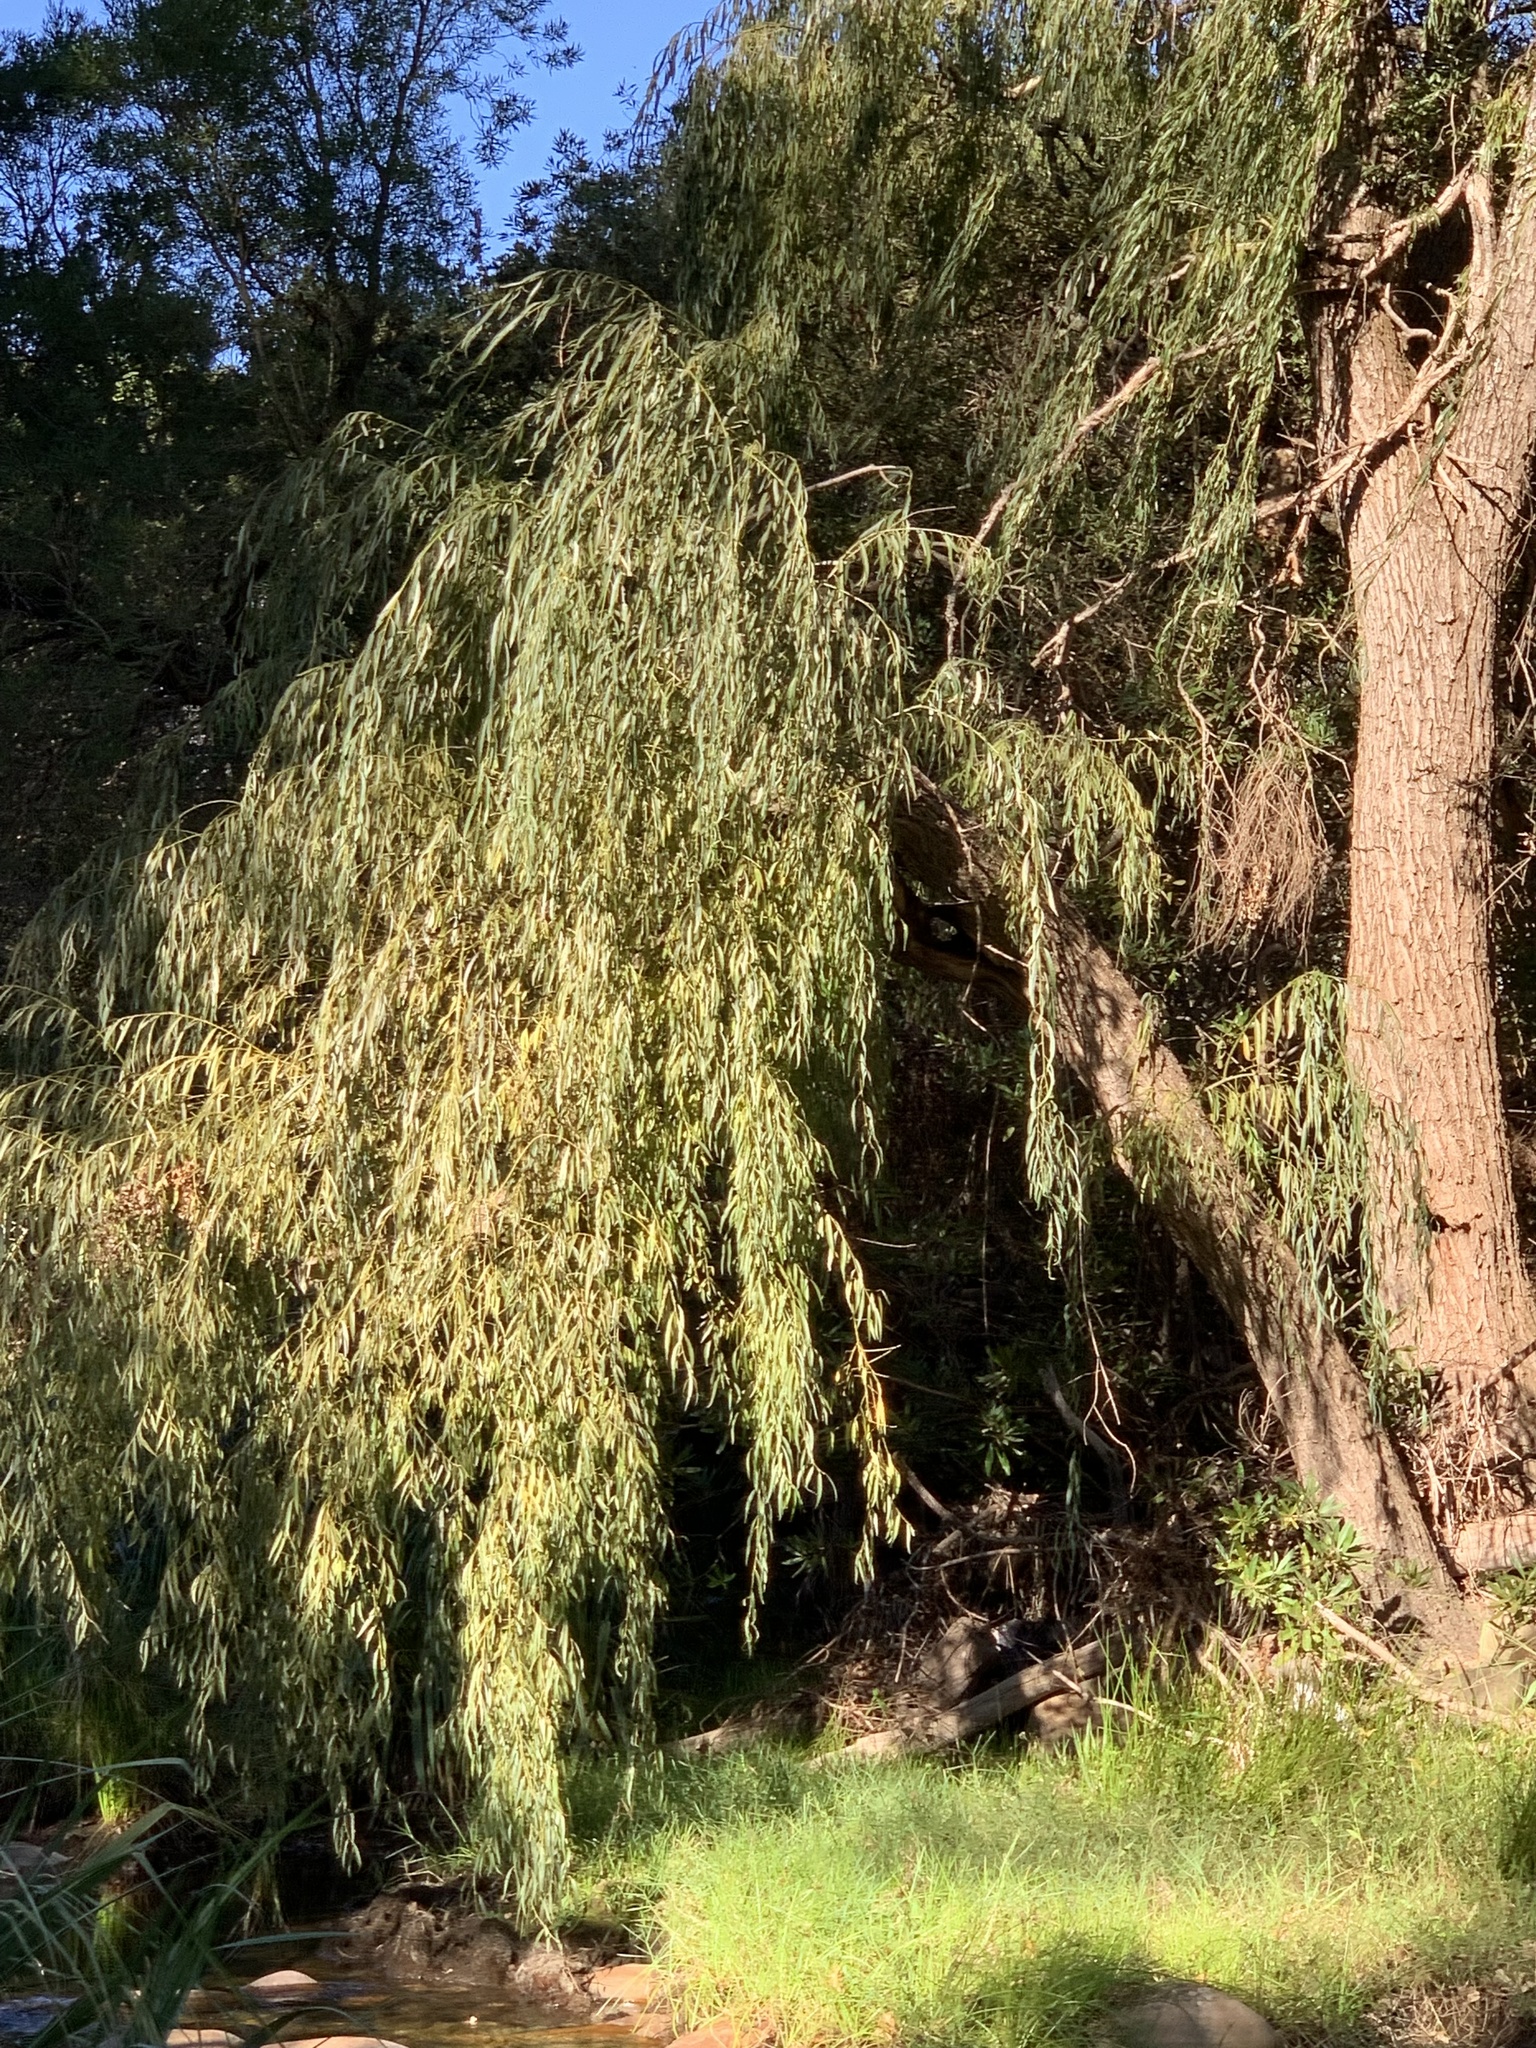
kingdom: Plantae
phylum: Tracheophyta
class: Magnoliopsida
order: Malpighiales
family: Salicaceae
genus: Salix
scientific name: Salix babylonica
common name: Weeping willow
